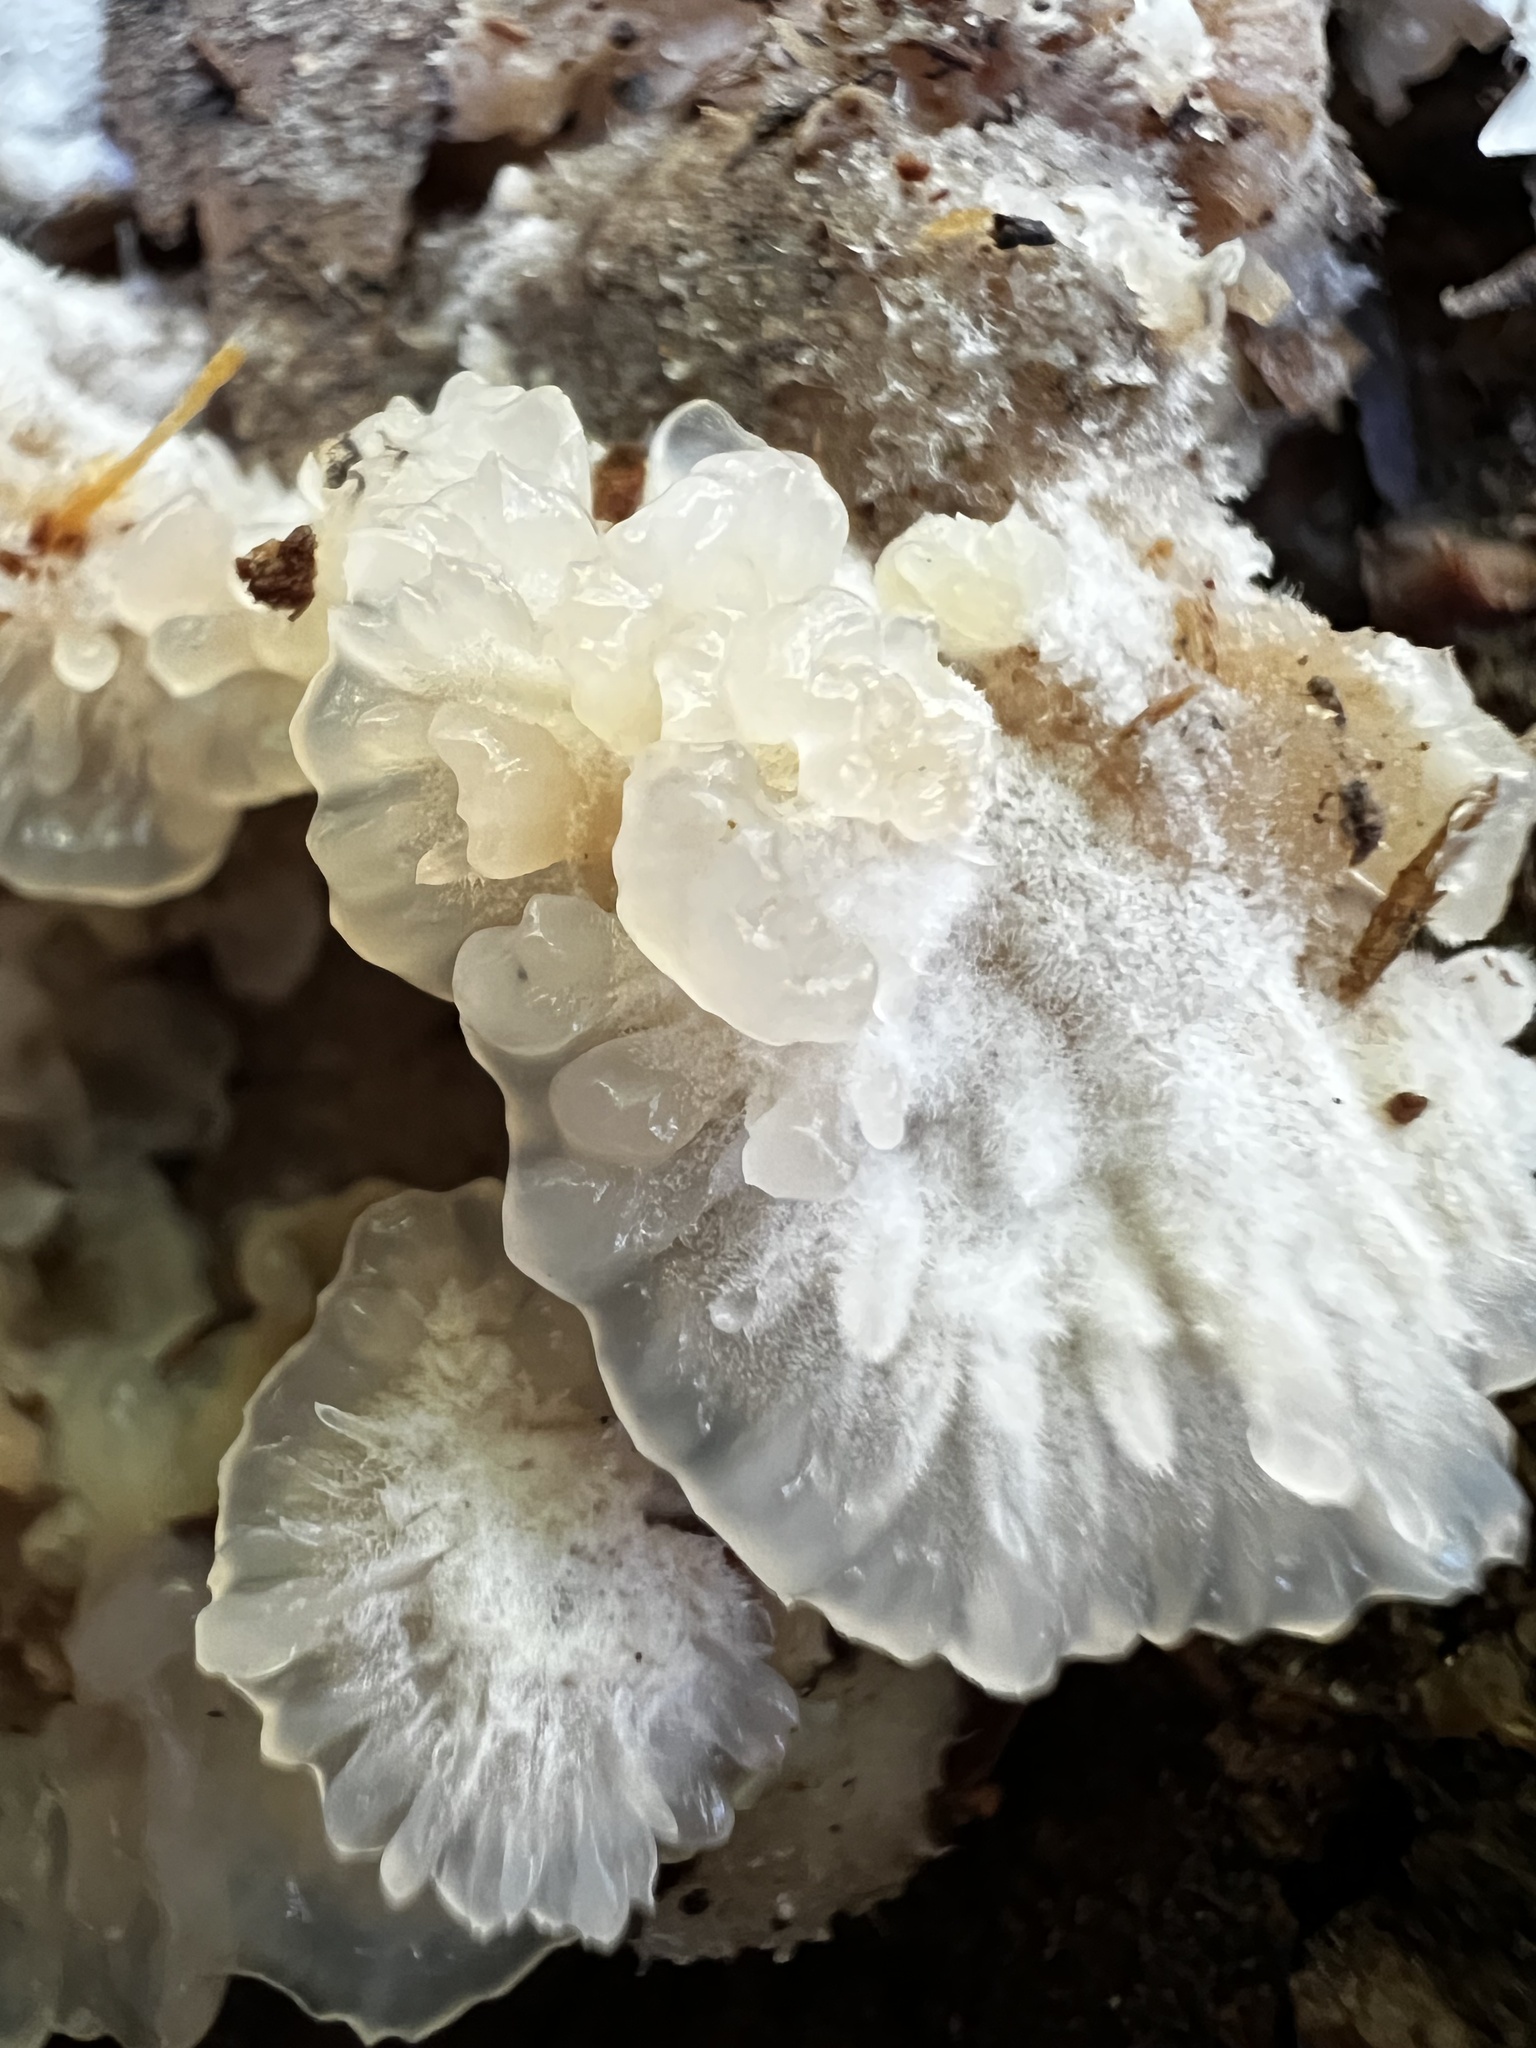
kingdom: Fungi
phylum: Basidiomycota
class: Agaricomycetes
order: Polyporales
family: Meruliaceae
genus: Phlebia
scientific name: Phlebia tremellosa
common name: Jelly rot
